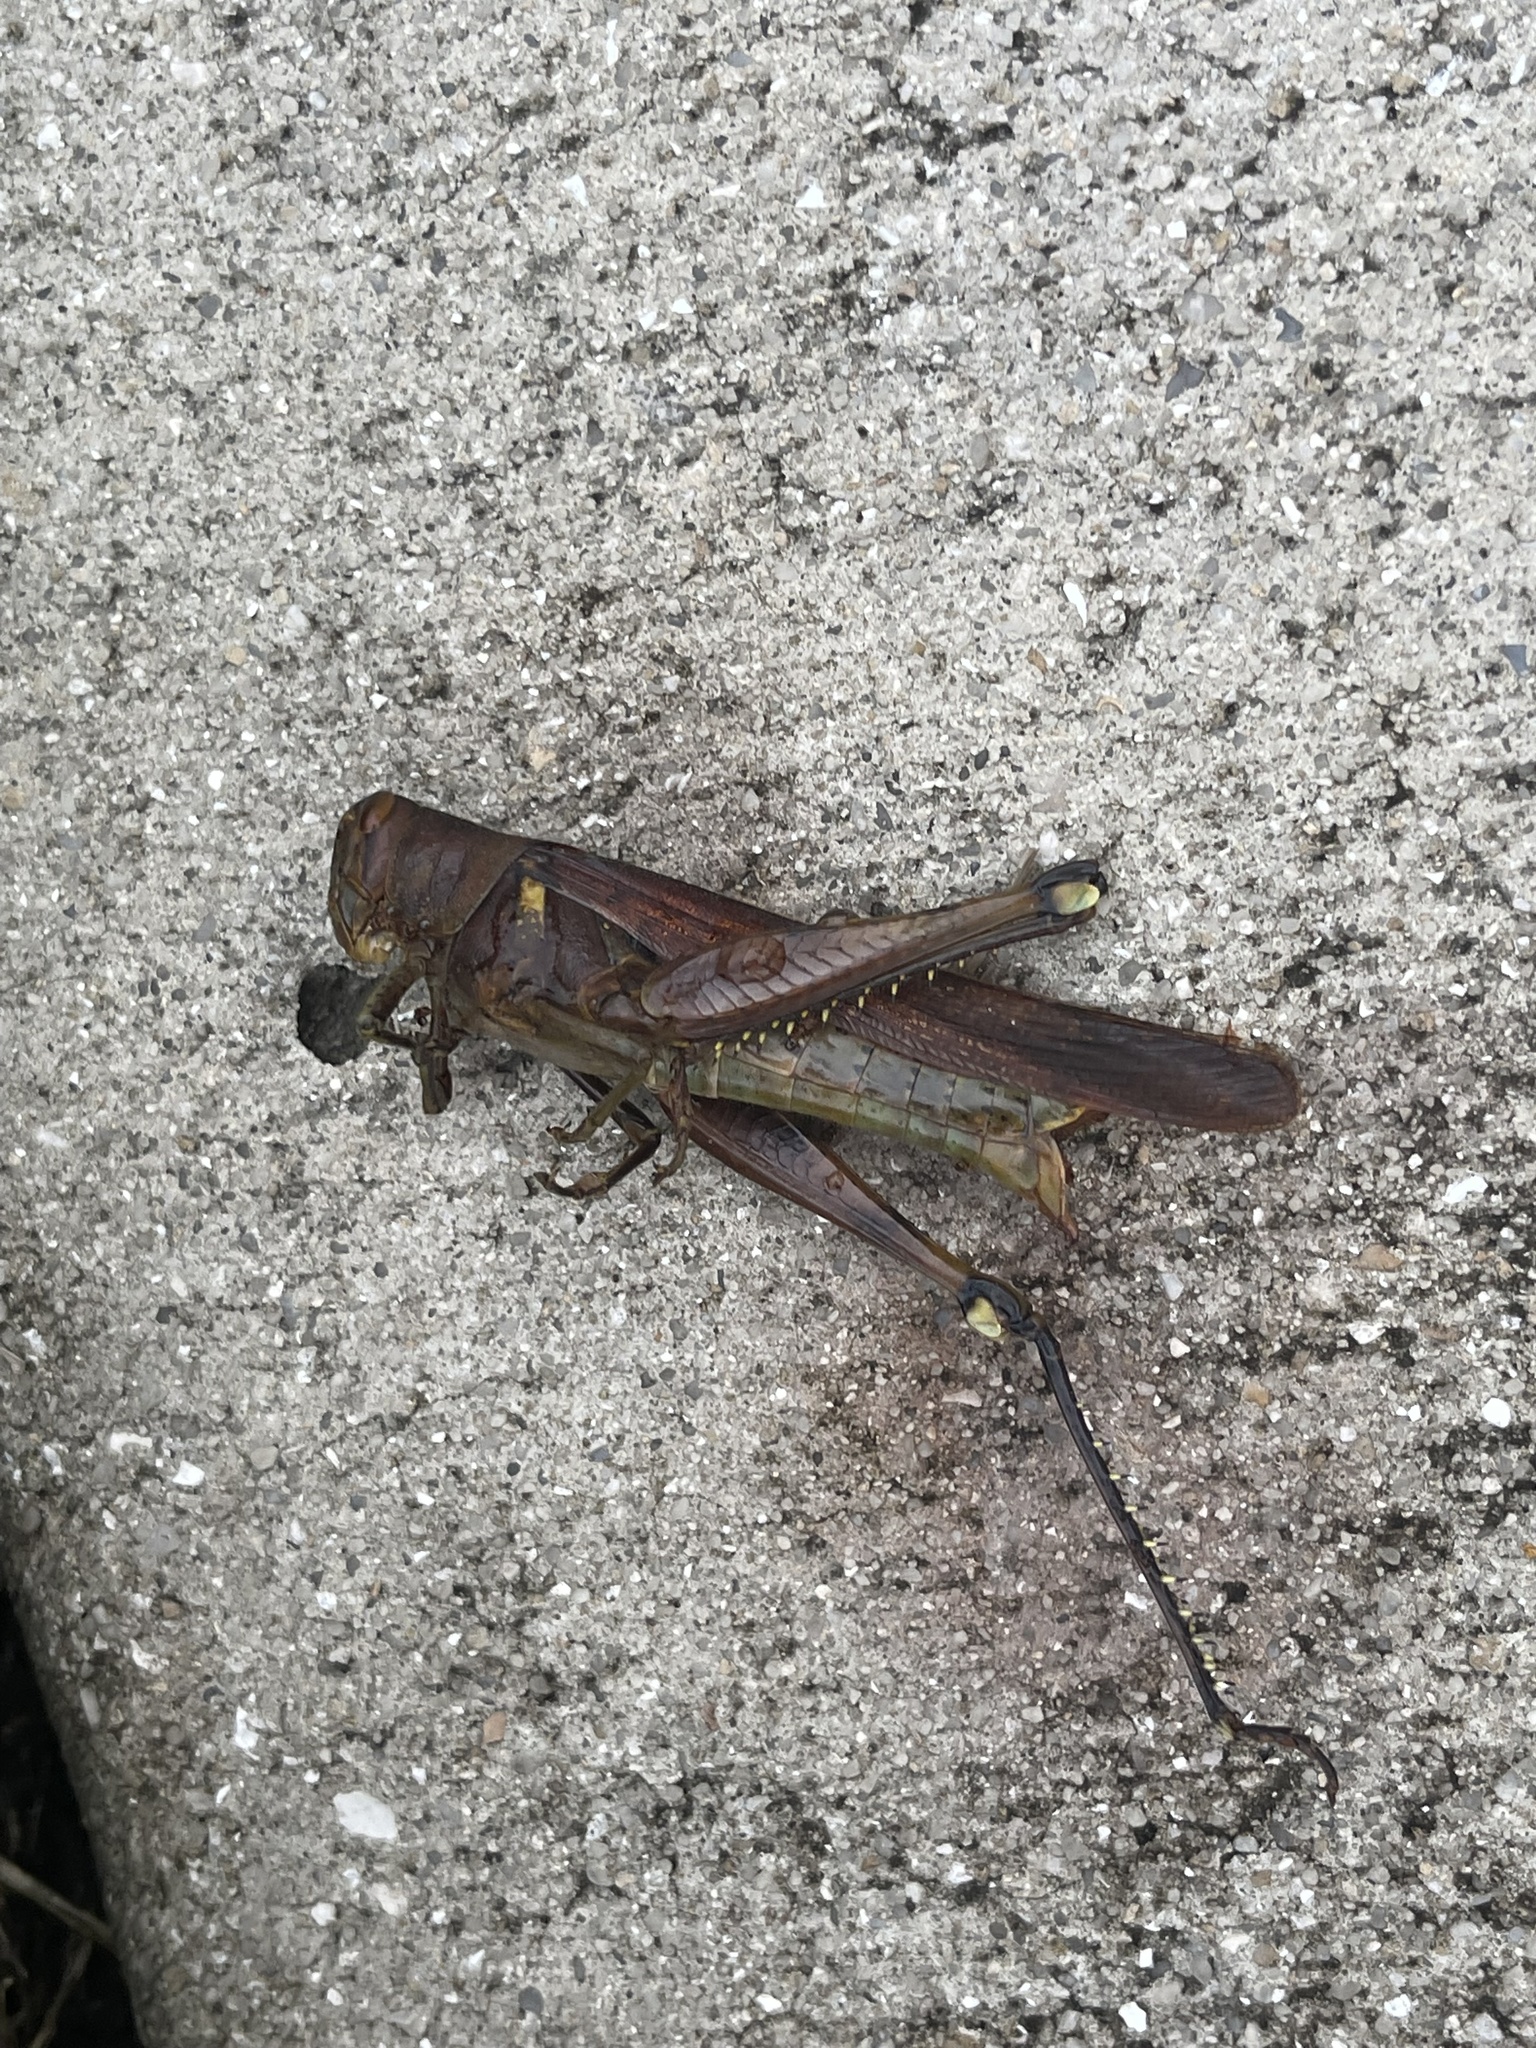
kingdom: Animalia
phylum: Arthropoda
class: Insecta
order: Orthoptera
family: Acrididae
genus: Schistocerca
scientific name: Schistocerca obscura
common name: Obscure bird grasshopper
